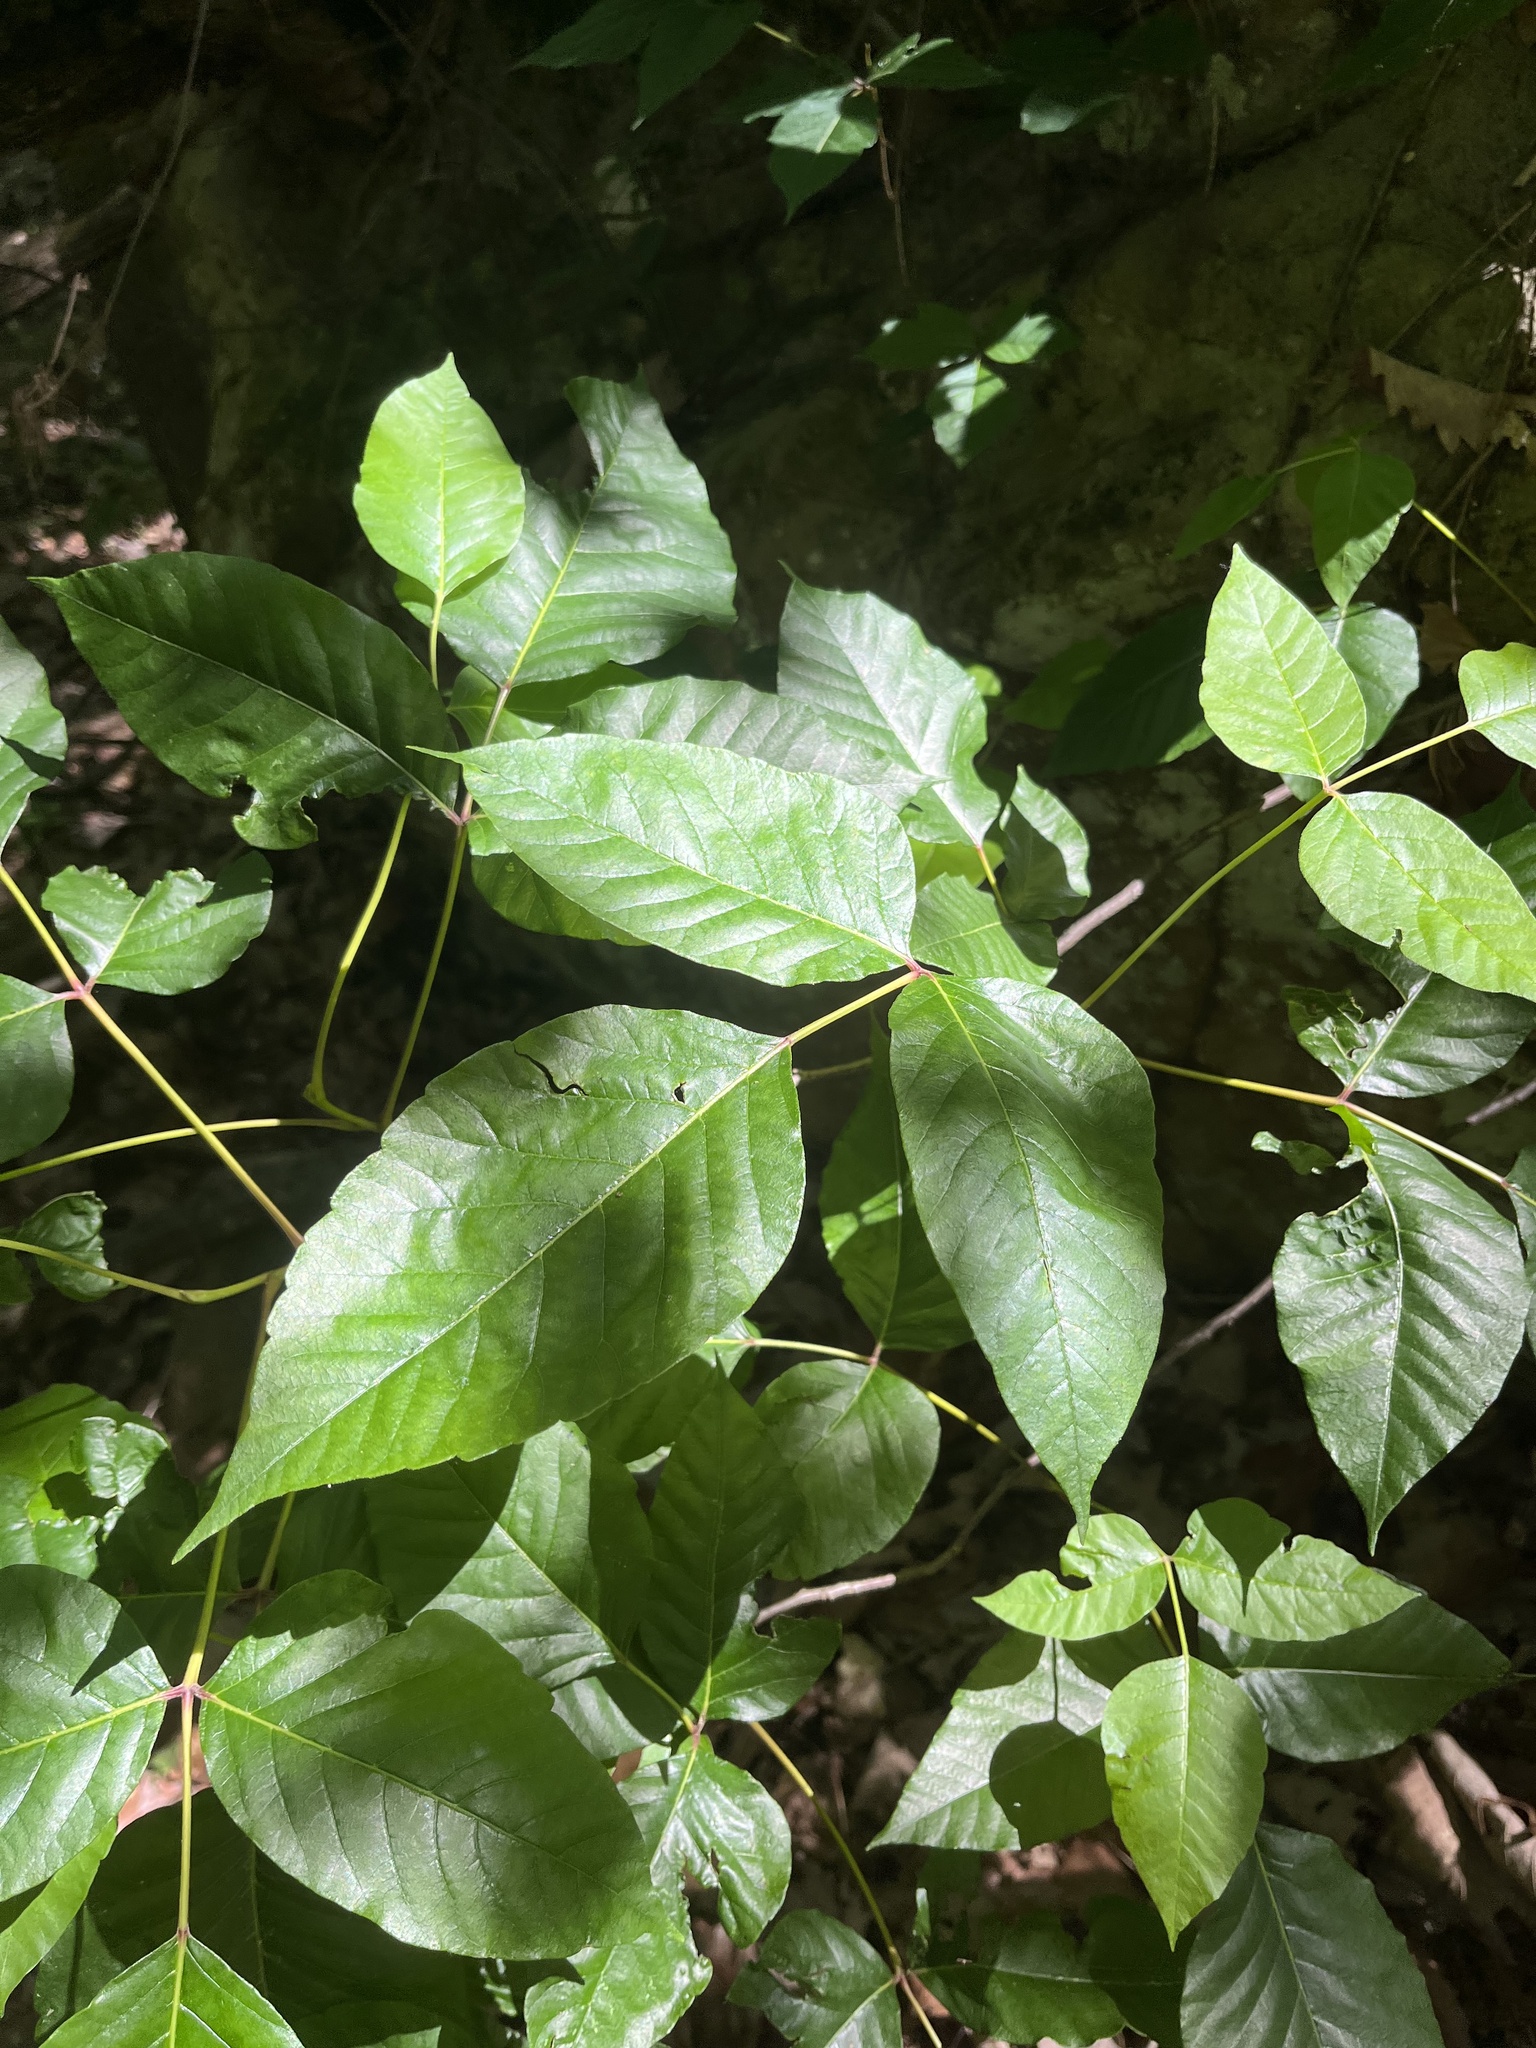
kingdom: Plantae
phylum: Tracheophyta
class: Magnoliopsida
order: Sapindales
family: Anacardiaceae
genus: Toxicodendron
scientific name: Toxicodendron radicans
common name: Poison ivy
